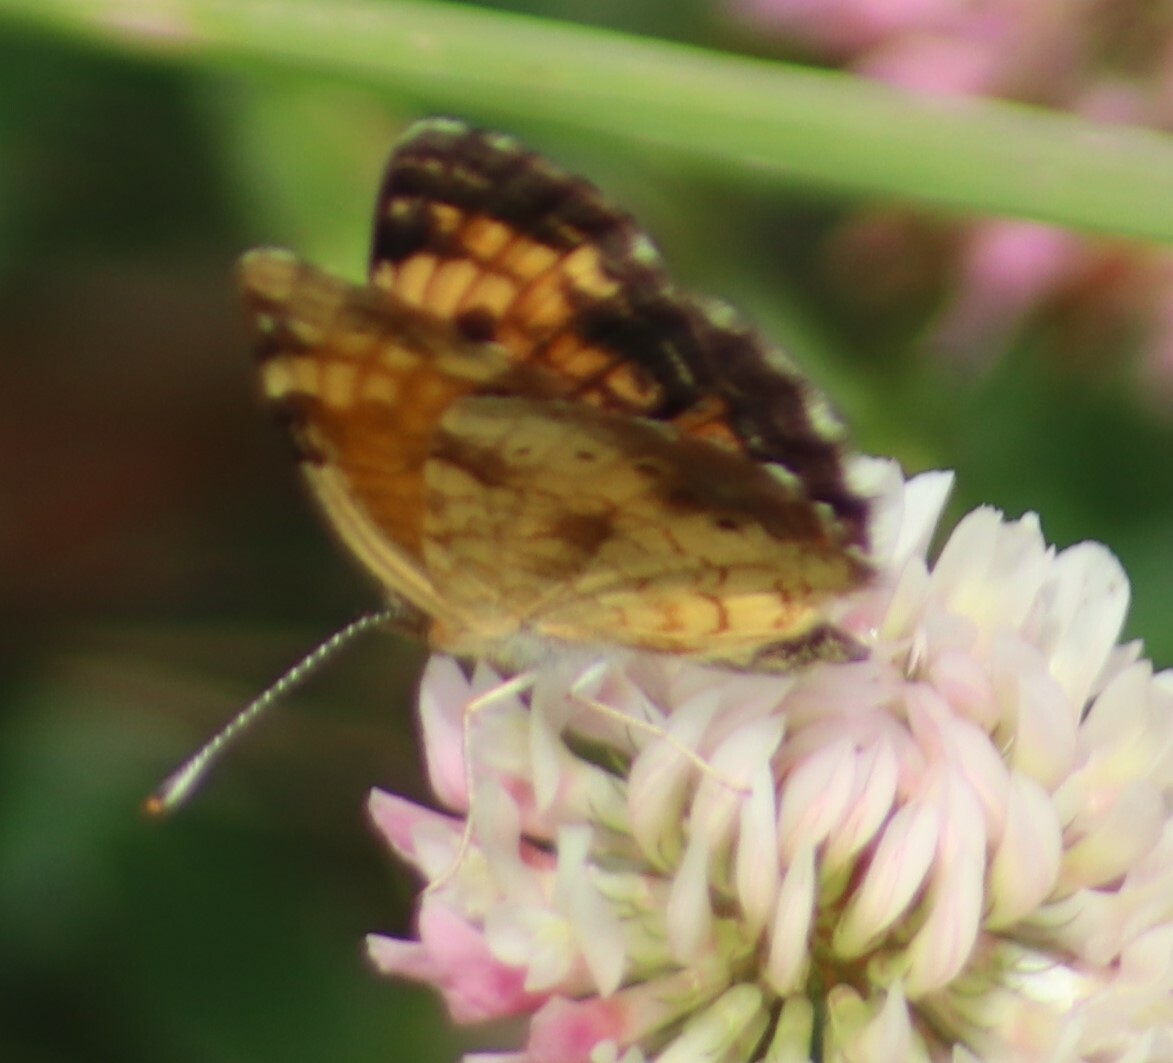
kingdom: Animalia
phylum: Arthropoda
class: Insecta
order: Lepidoptera
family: Nymphalidae
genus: Phyciodes
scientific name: Phyciodes tharos
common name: Pearl crescent
